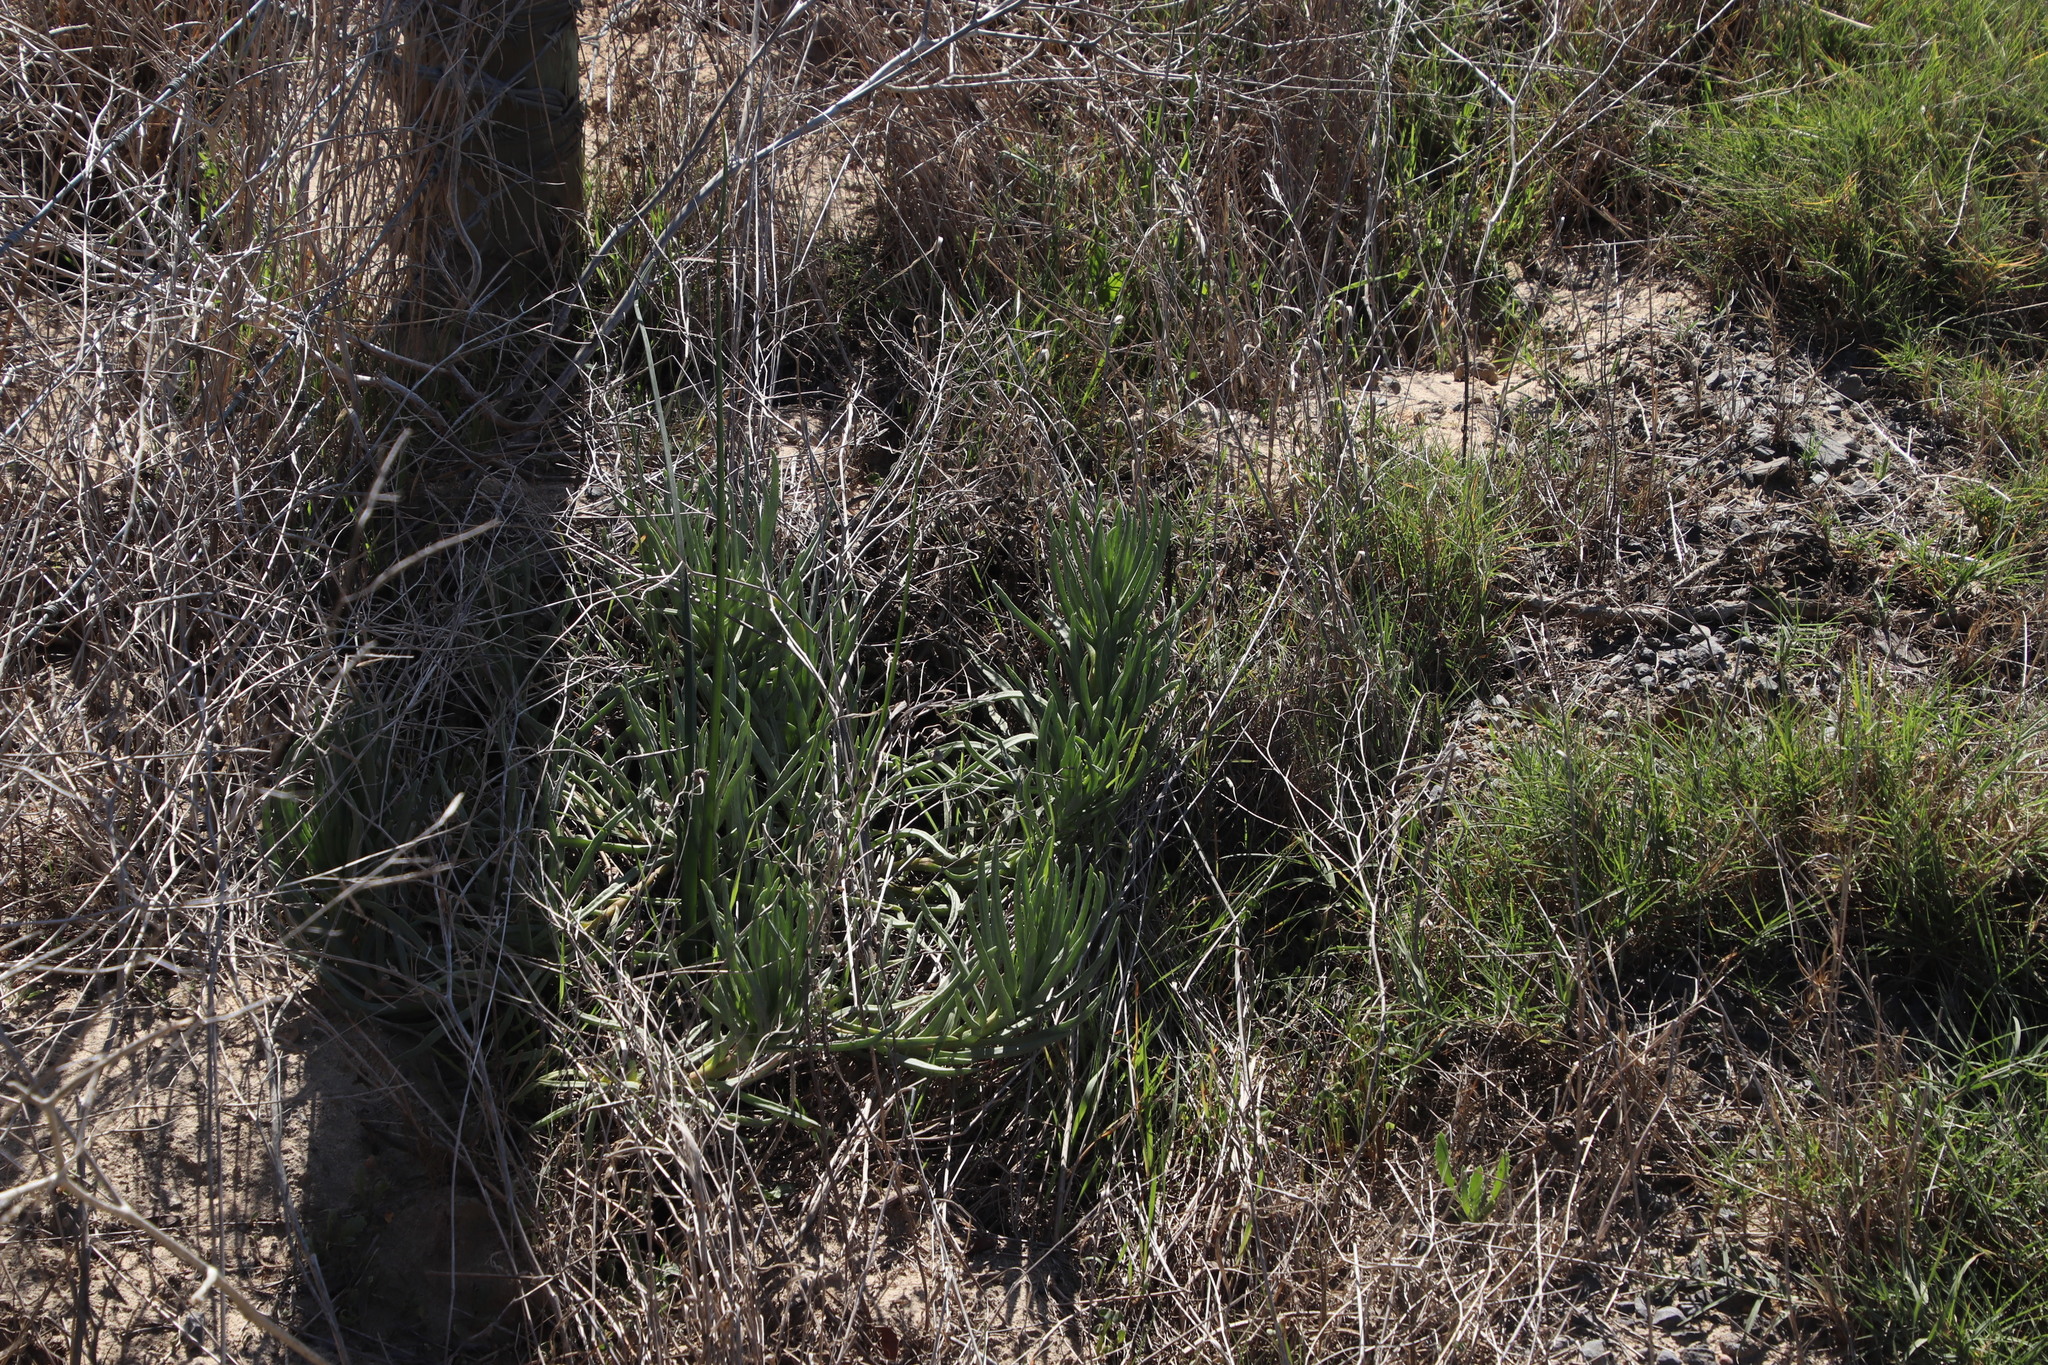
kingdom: Plantae
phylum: Tracheophyta
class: Magnoliopsida
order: Caryophyllales
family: Aizoaceae
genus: Conicosia
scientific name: Conicosia pugioniformis
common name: Narrow-leaved iceplant
